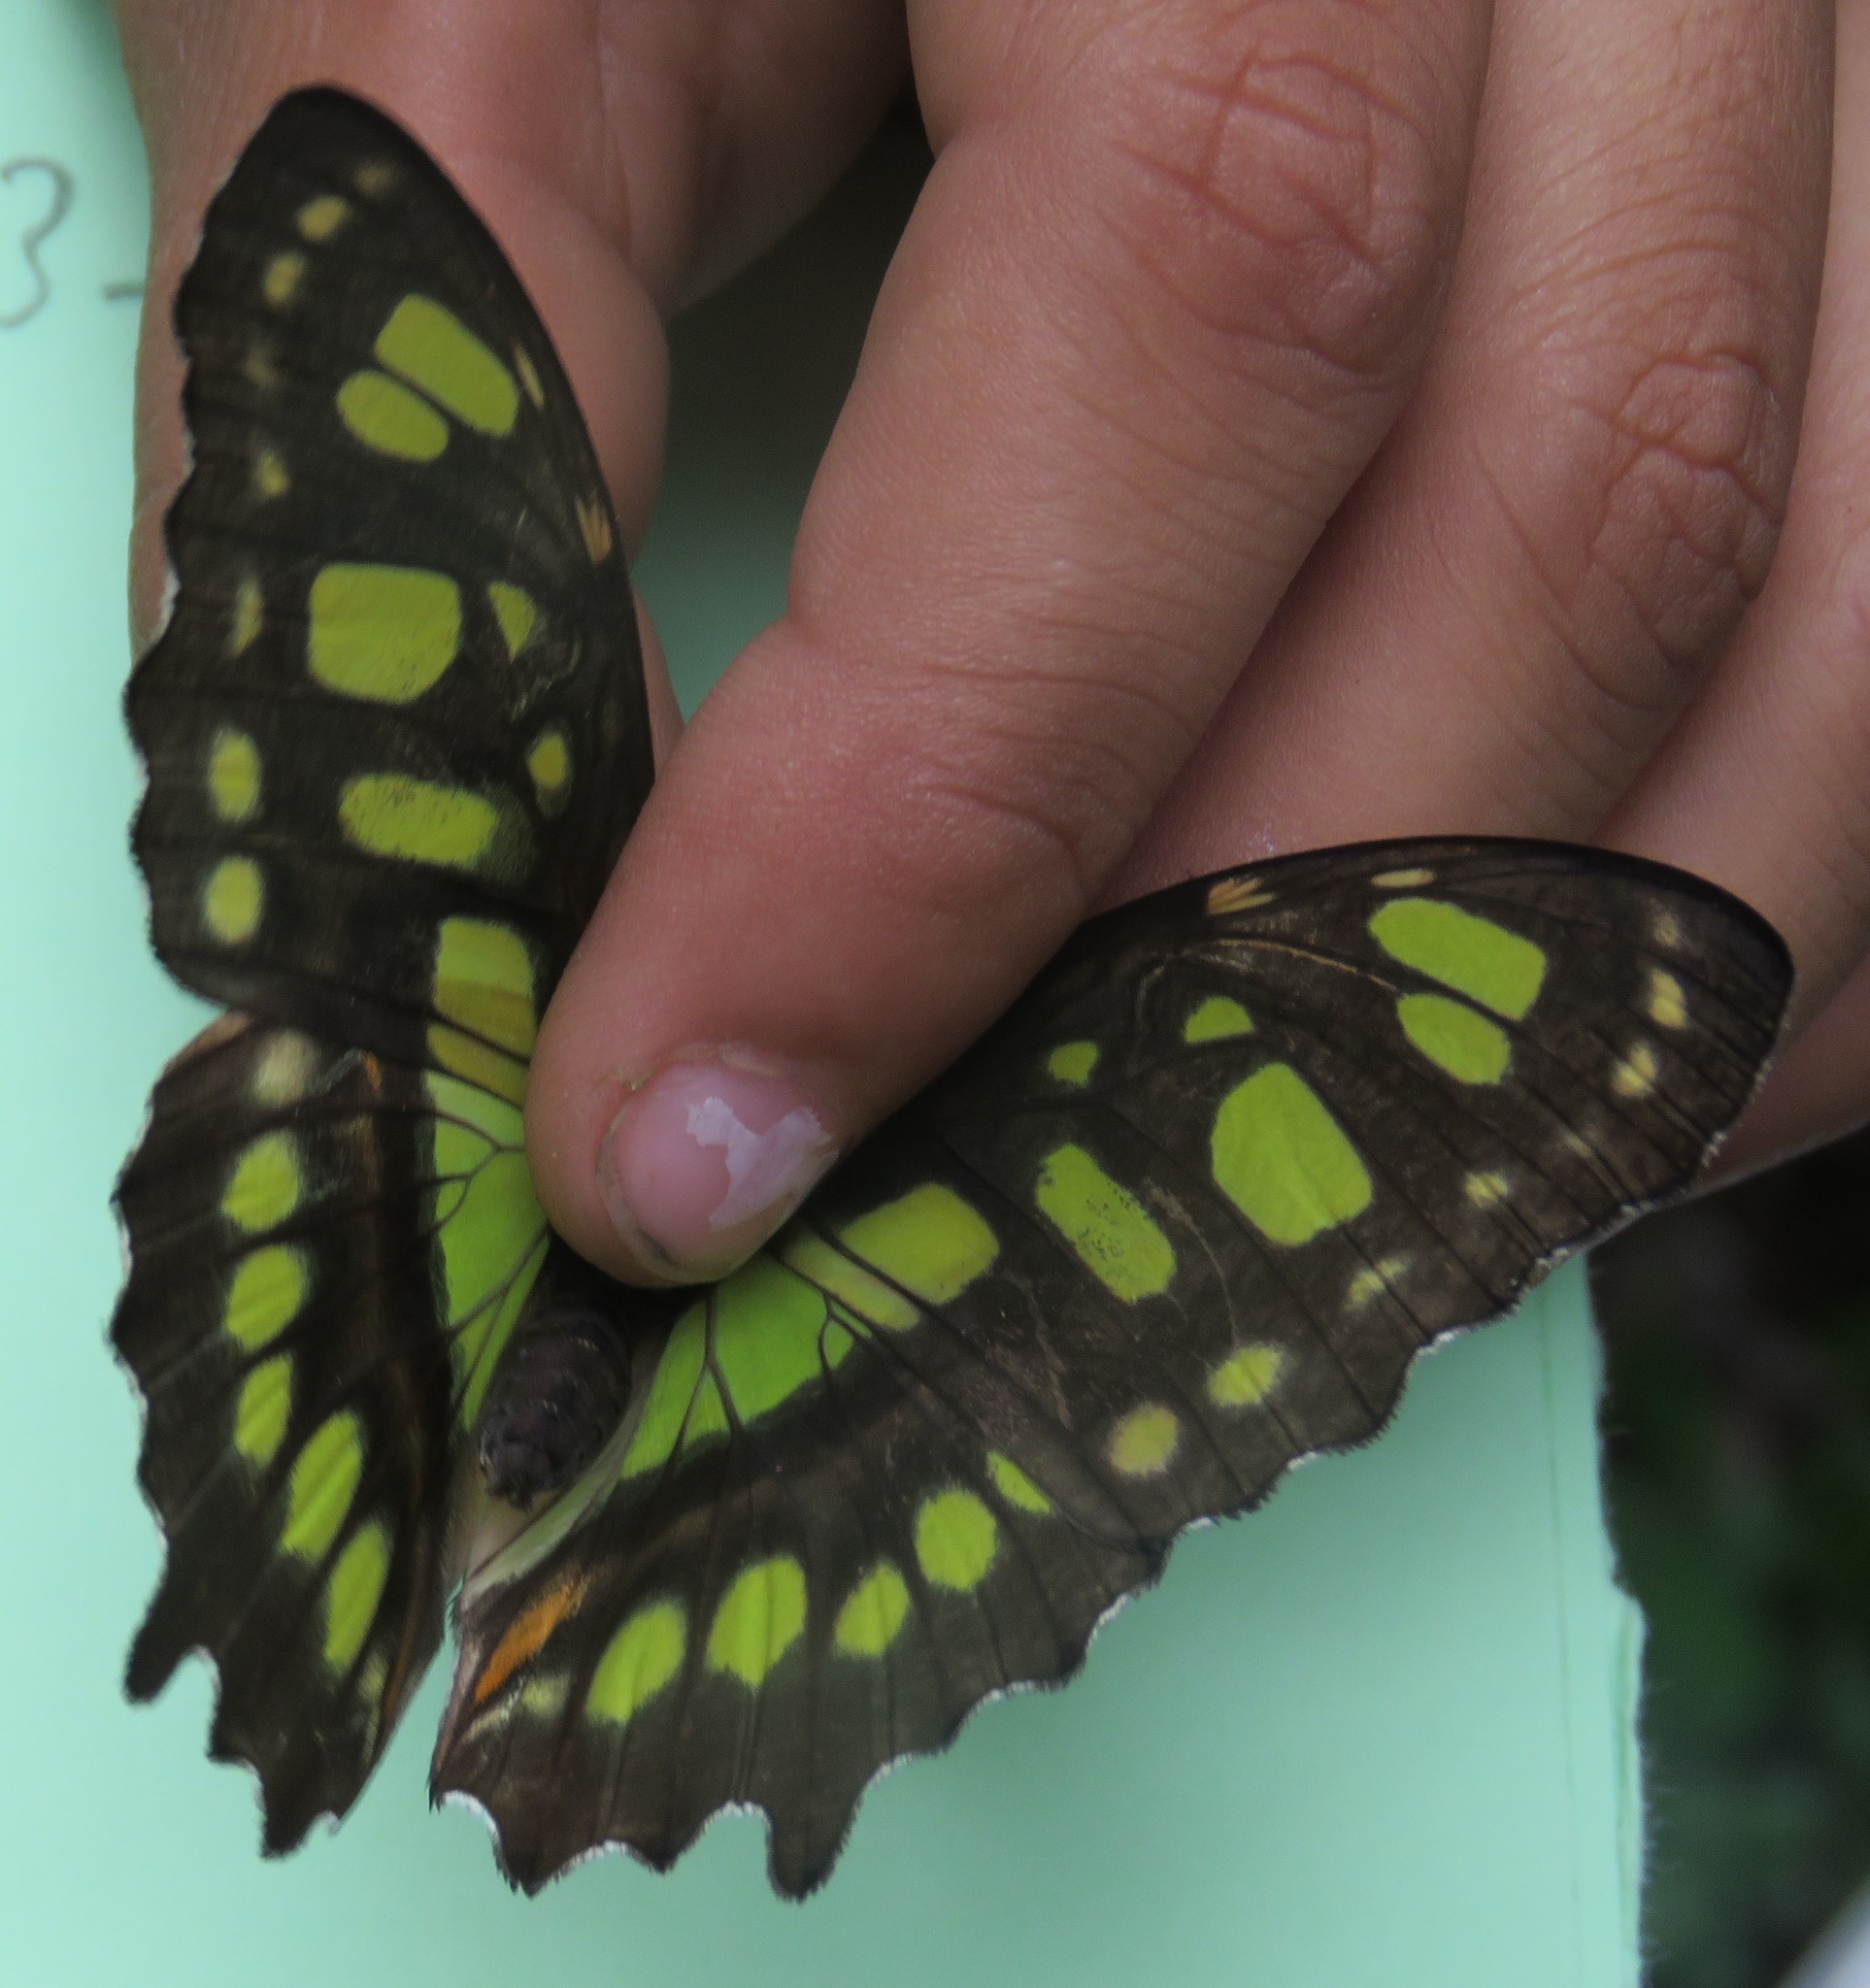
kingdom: Animalia
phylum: Arthropoda
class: Insecta
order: Lepidoptera
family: Nymphalidae
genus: Siproeta
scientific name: Siproeta stelenes
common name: Malachite
